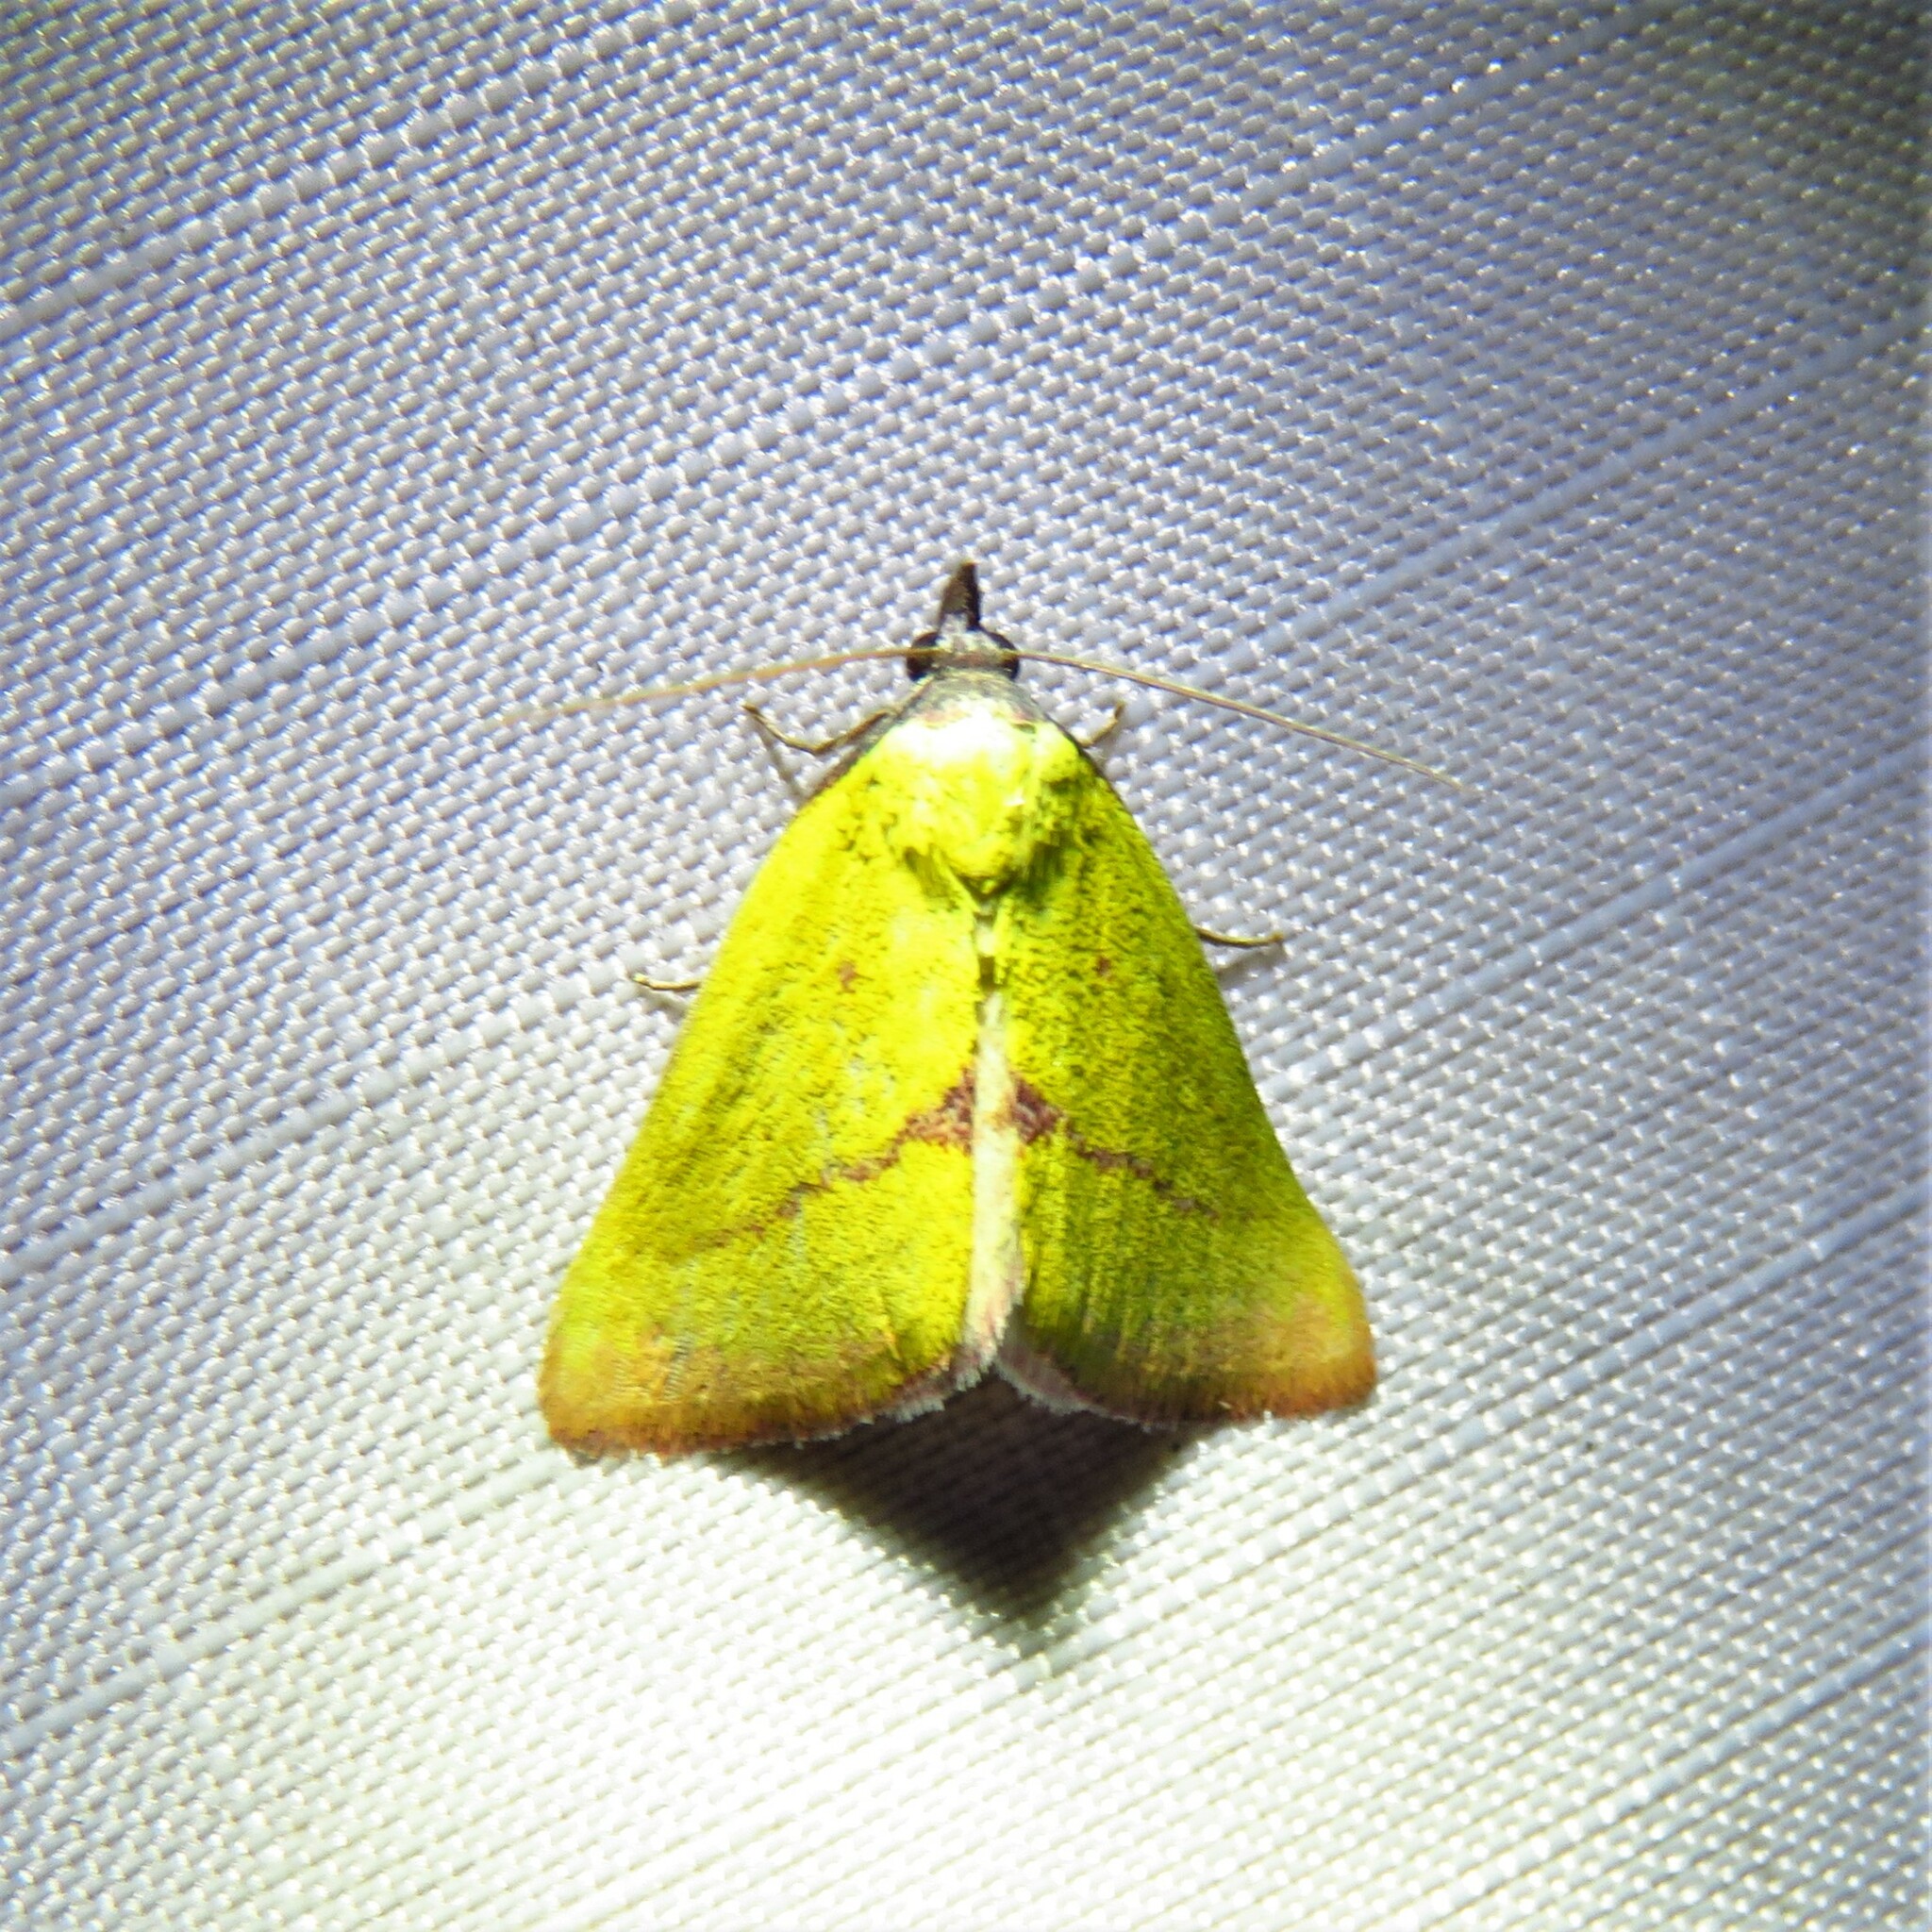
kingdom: Animalia
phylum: Arthropoda
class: Insecta
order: Lepidoptera
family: Erebidae
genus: Phytometra
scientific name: Phytometra orgiae
